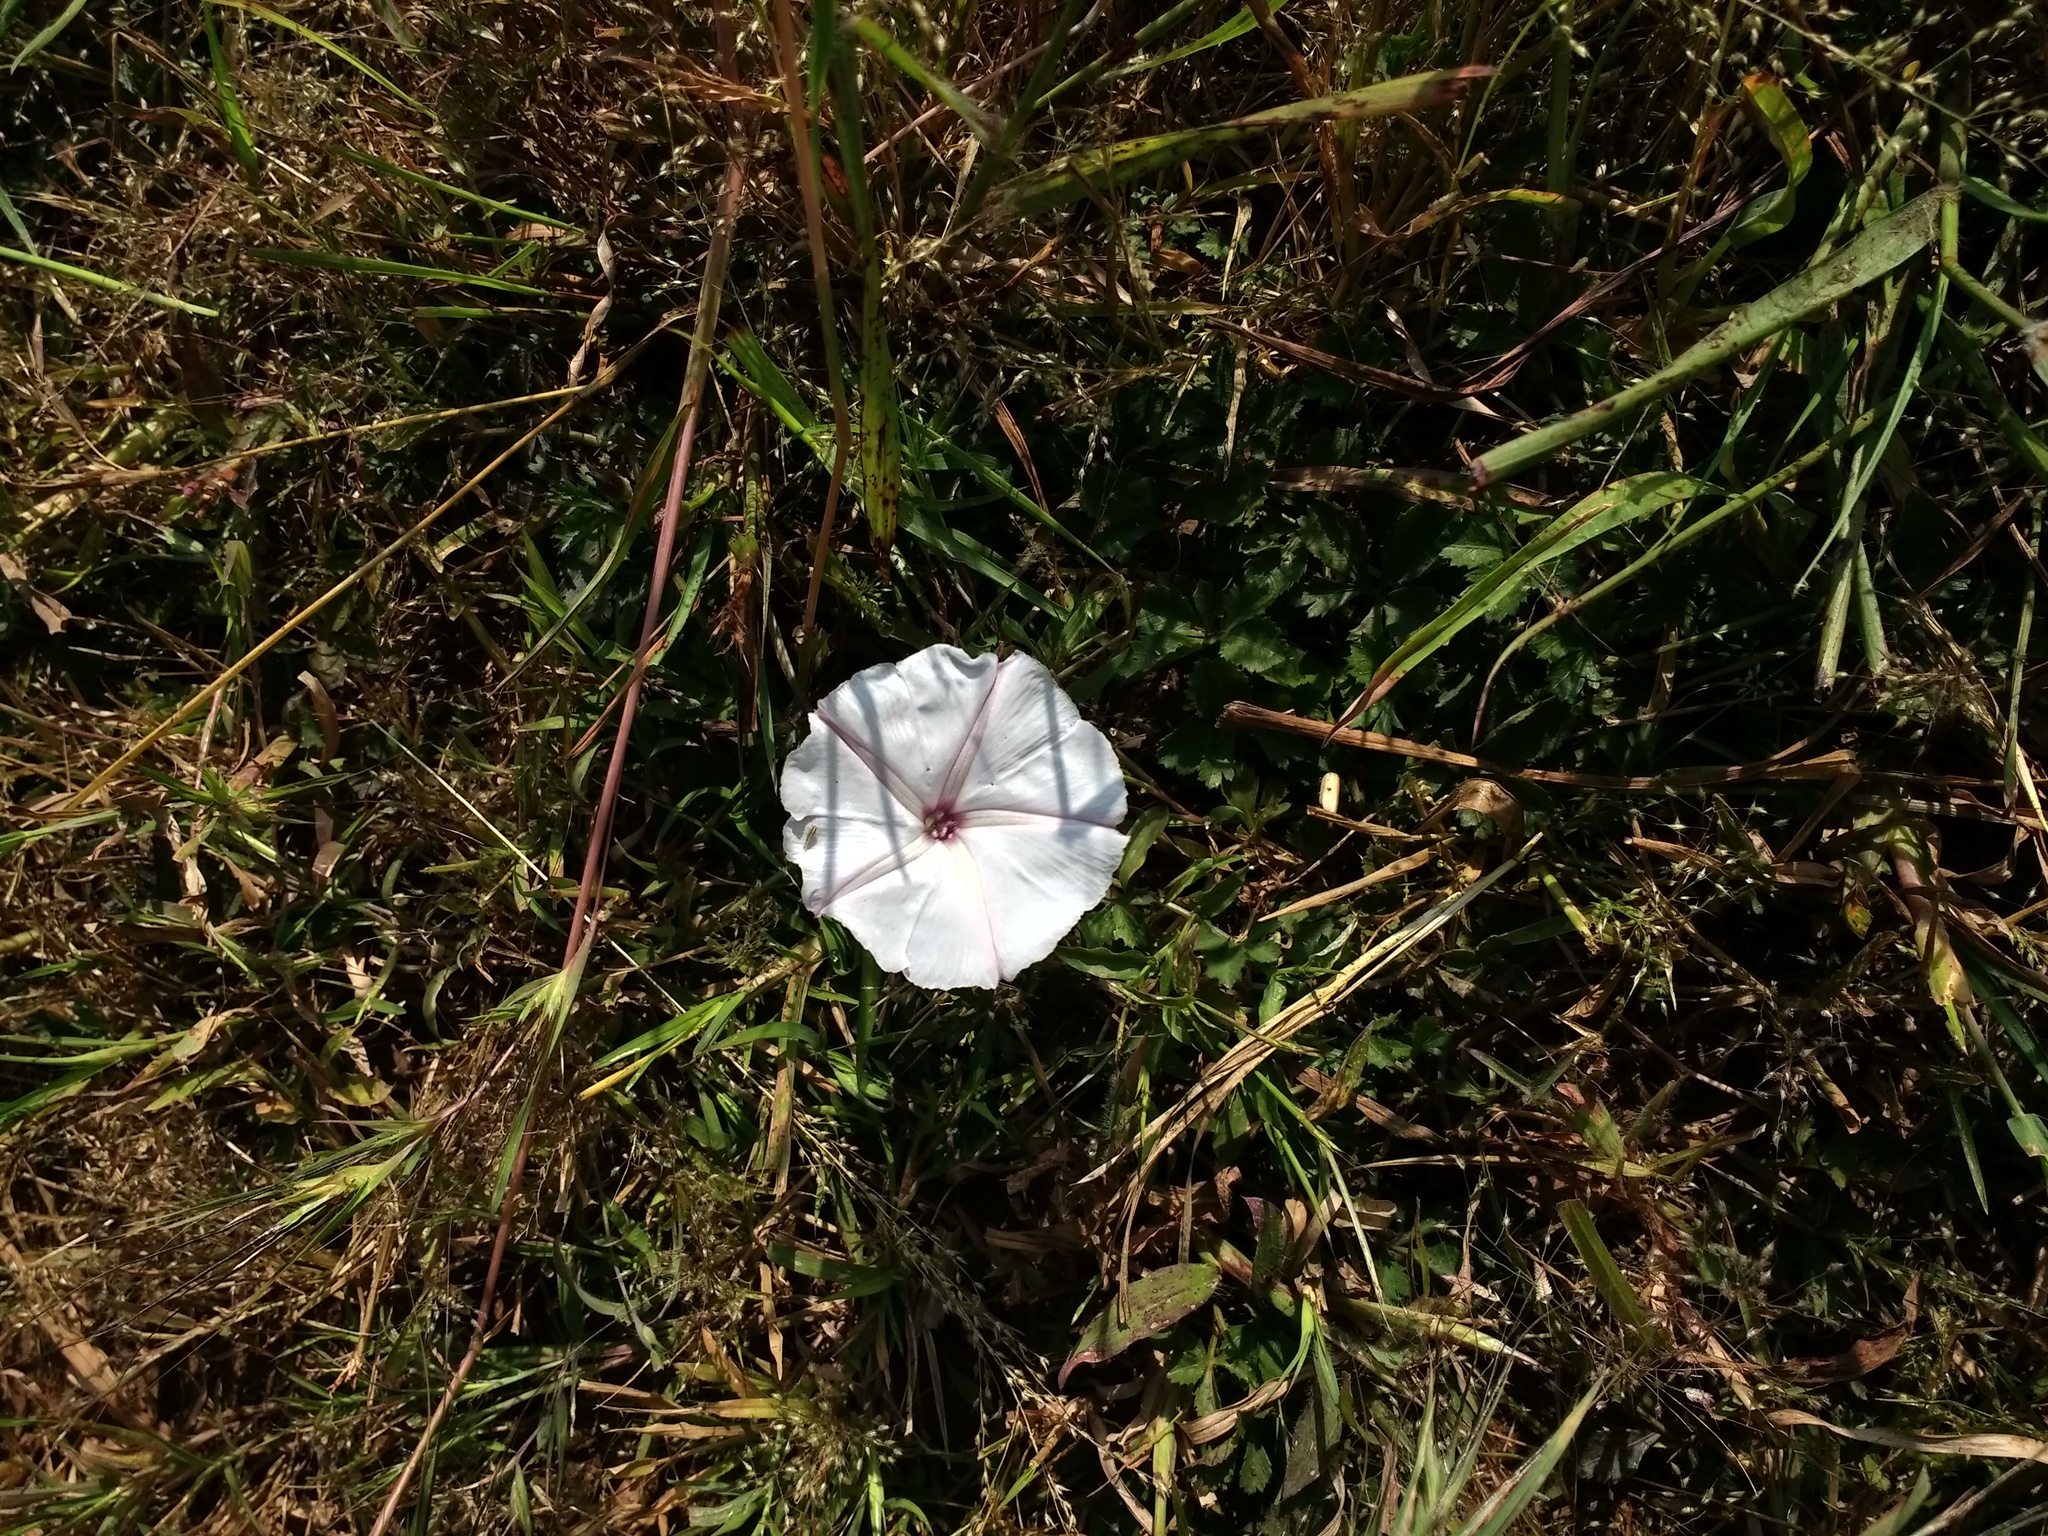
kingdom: Plantae
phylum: Tracheophyta
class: Magnoliopsida
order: Solanales
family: Convolvulaceae
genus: Ipomoea
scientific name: Ipomoea diversifolia
